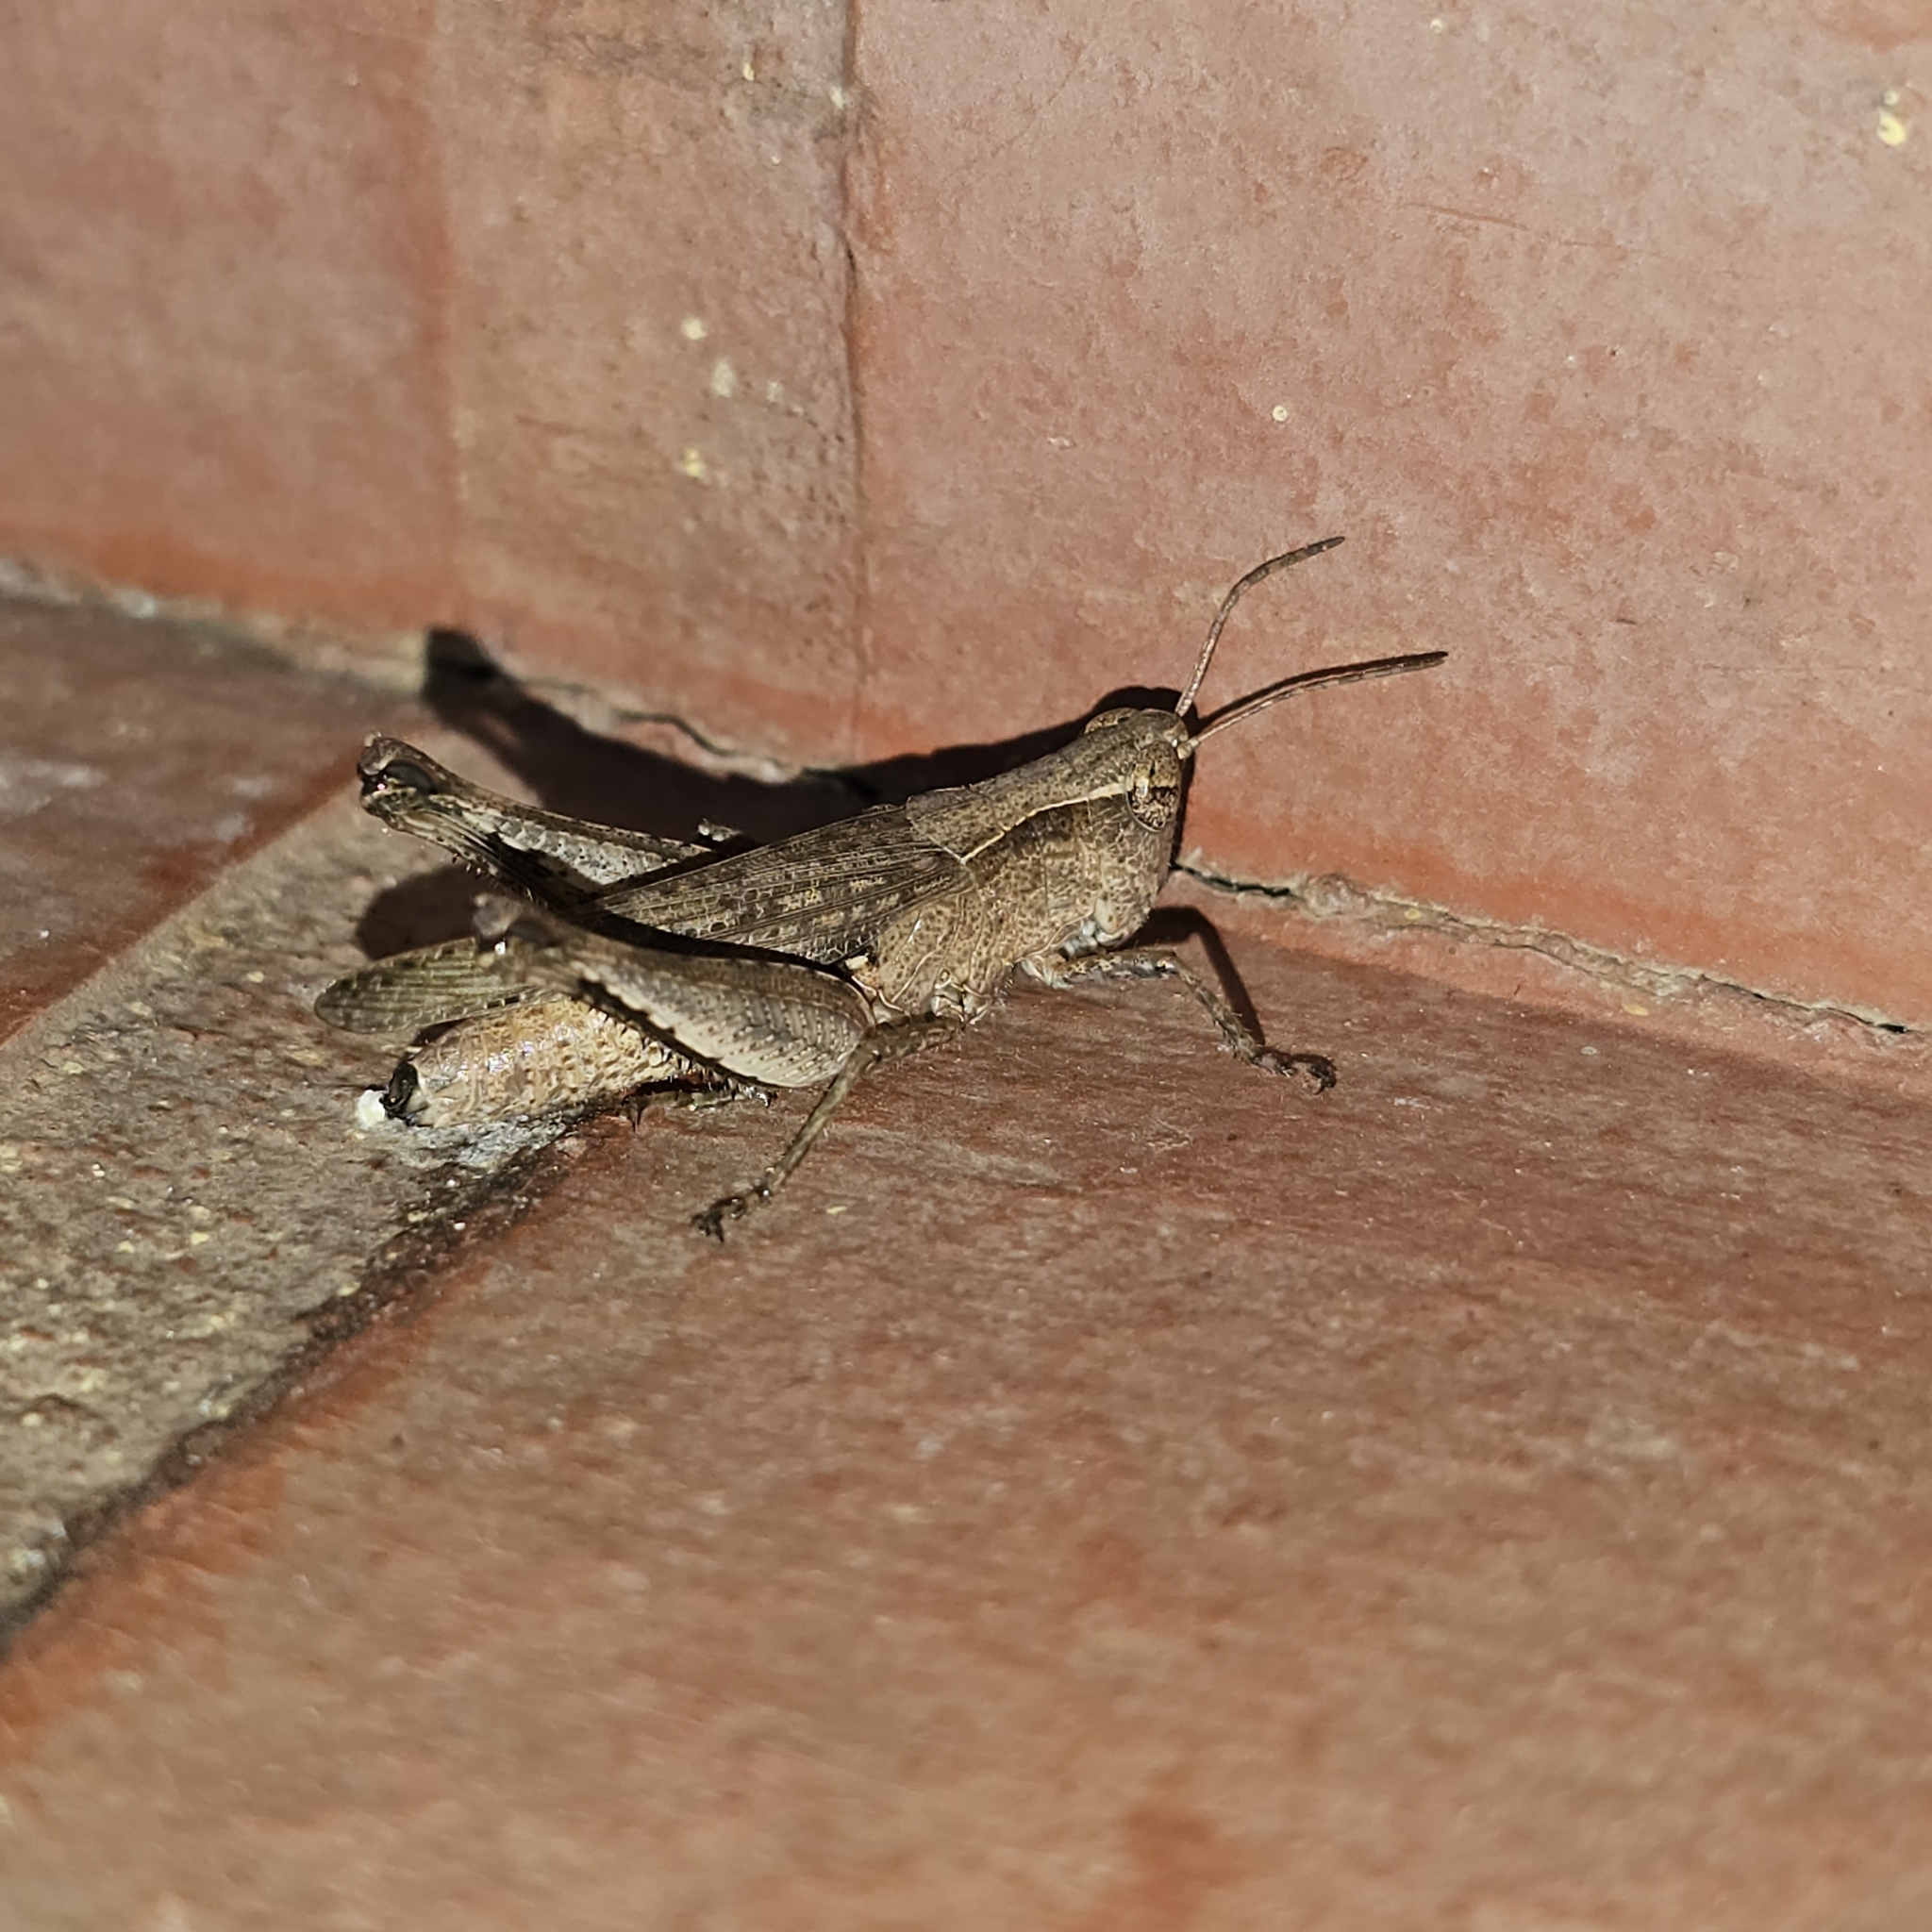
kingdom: Animalia
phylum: Arthropoda
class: Insecta
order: Orthoptera
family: Acrididae
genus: Orphulella
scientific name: Orphulella punctata
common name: Slant-faced grasshopper
